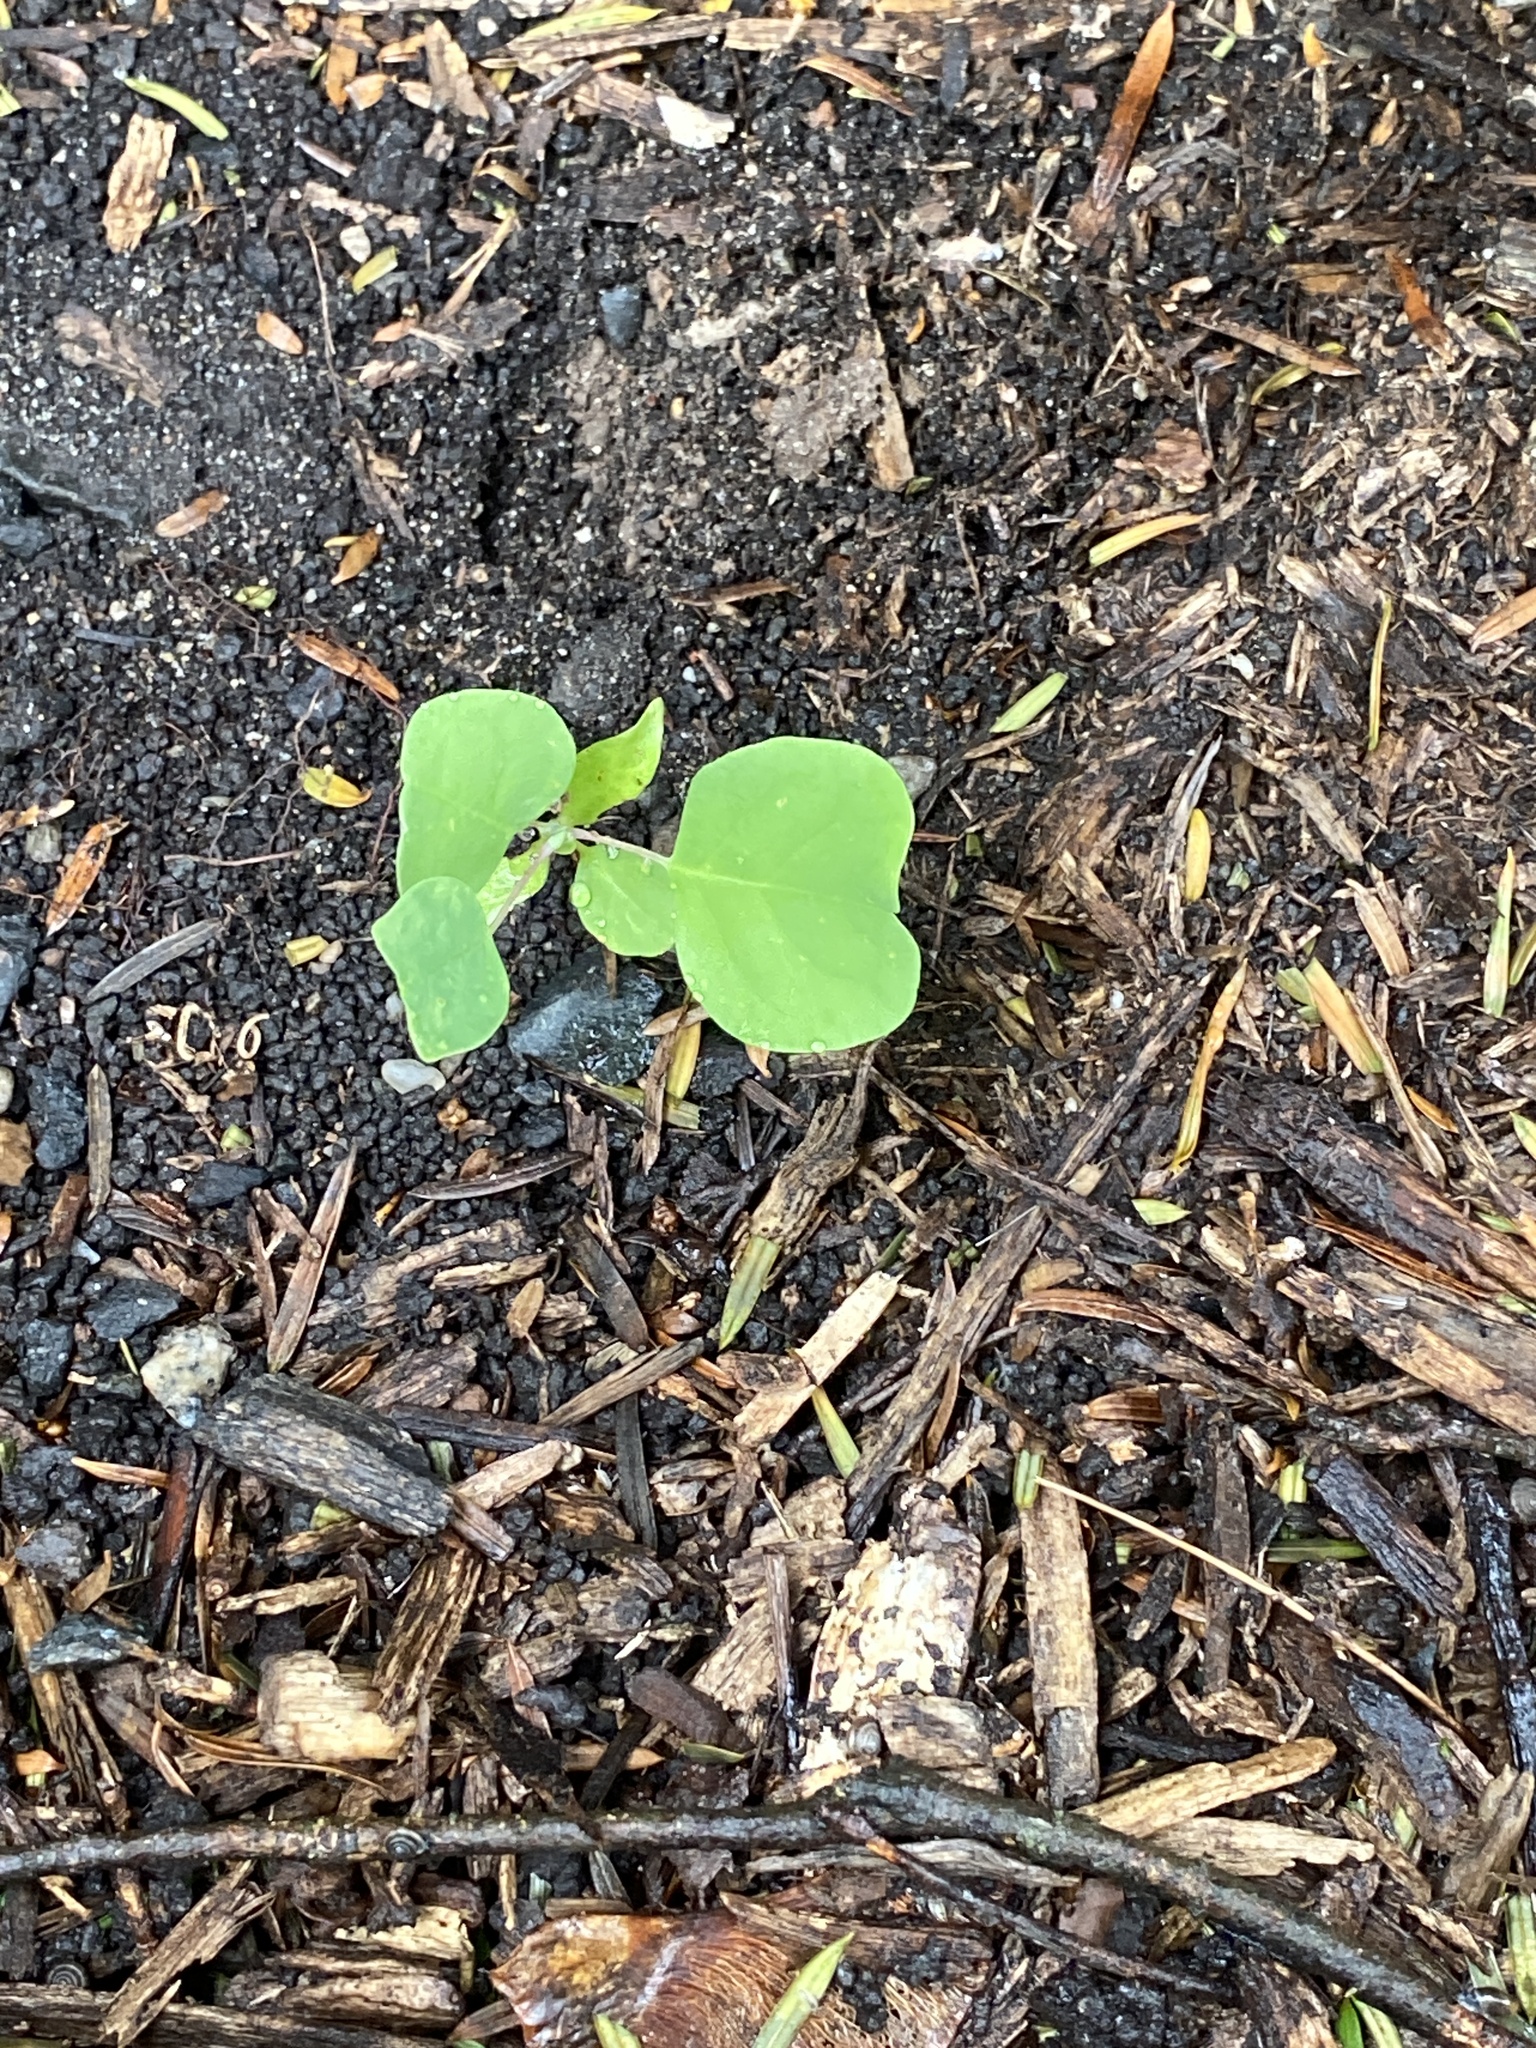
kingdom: Plantae
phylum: Tracheophyta
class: Magnoliopsida
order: Magnoliales
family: Magnoliaceae
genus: Liriodendron
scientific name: Liriodendron tulipifera
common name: Tulip tree
